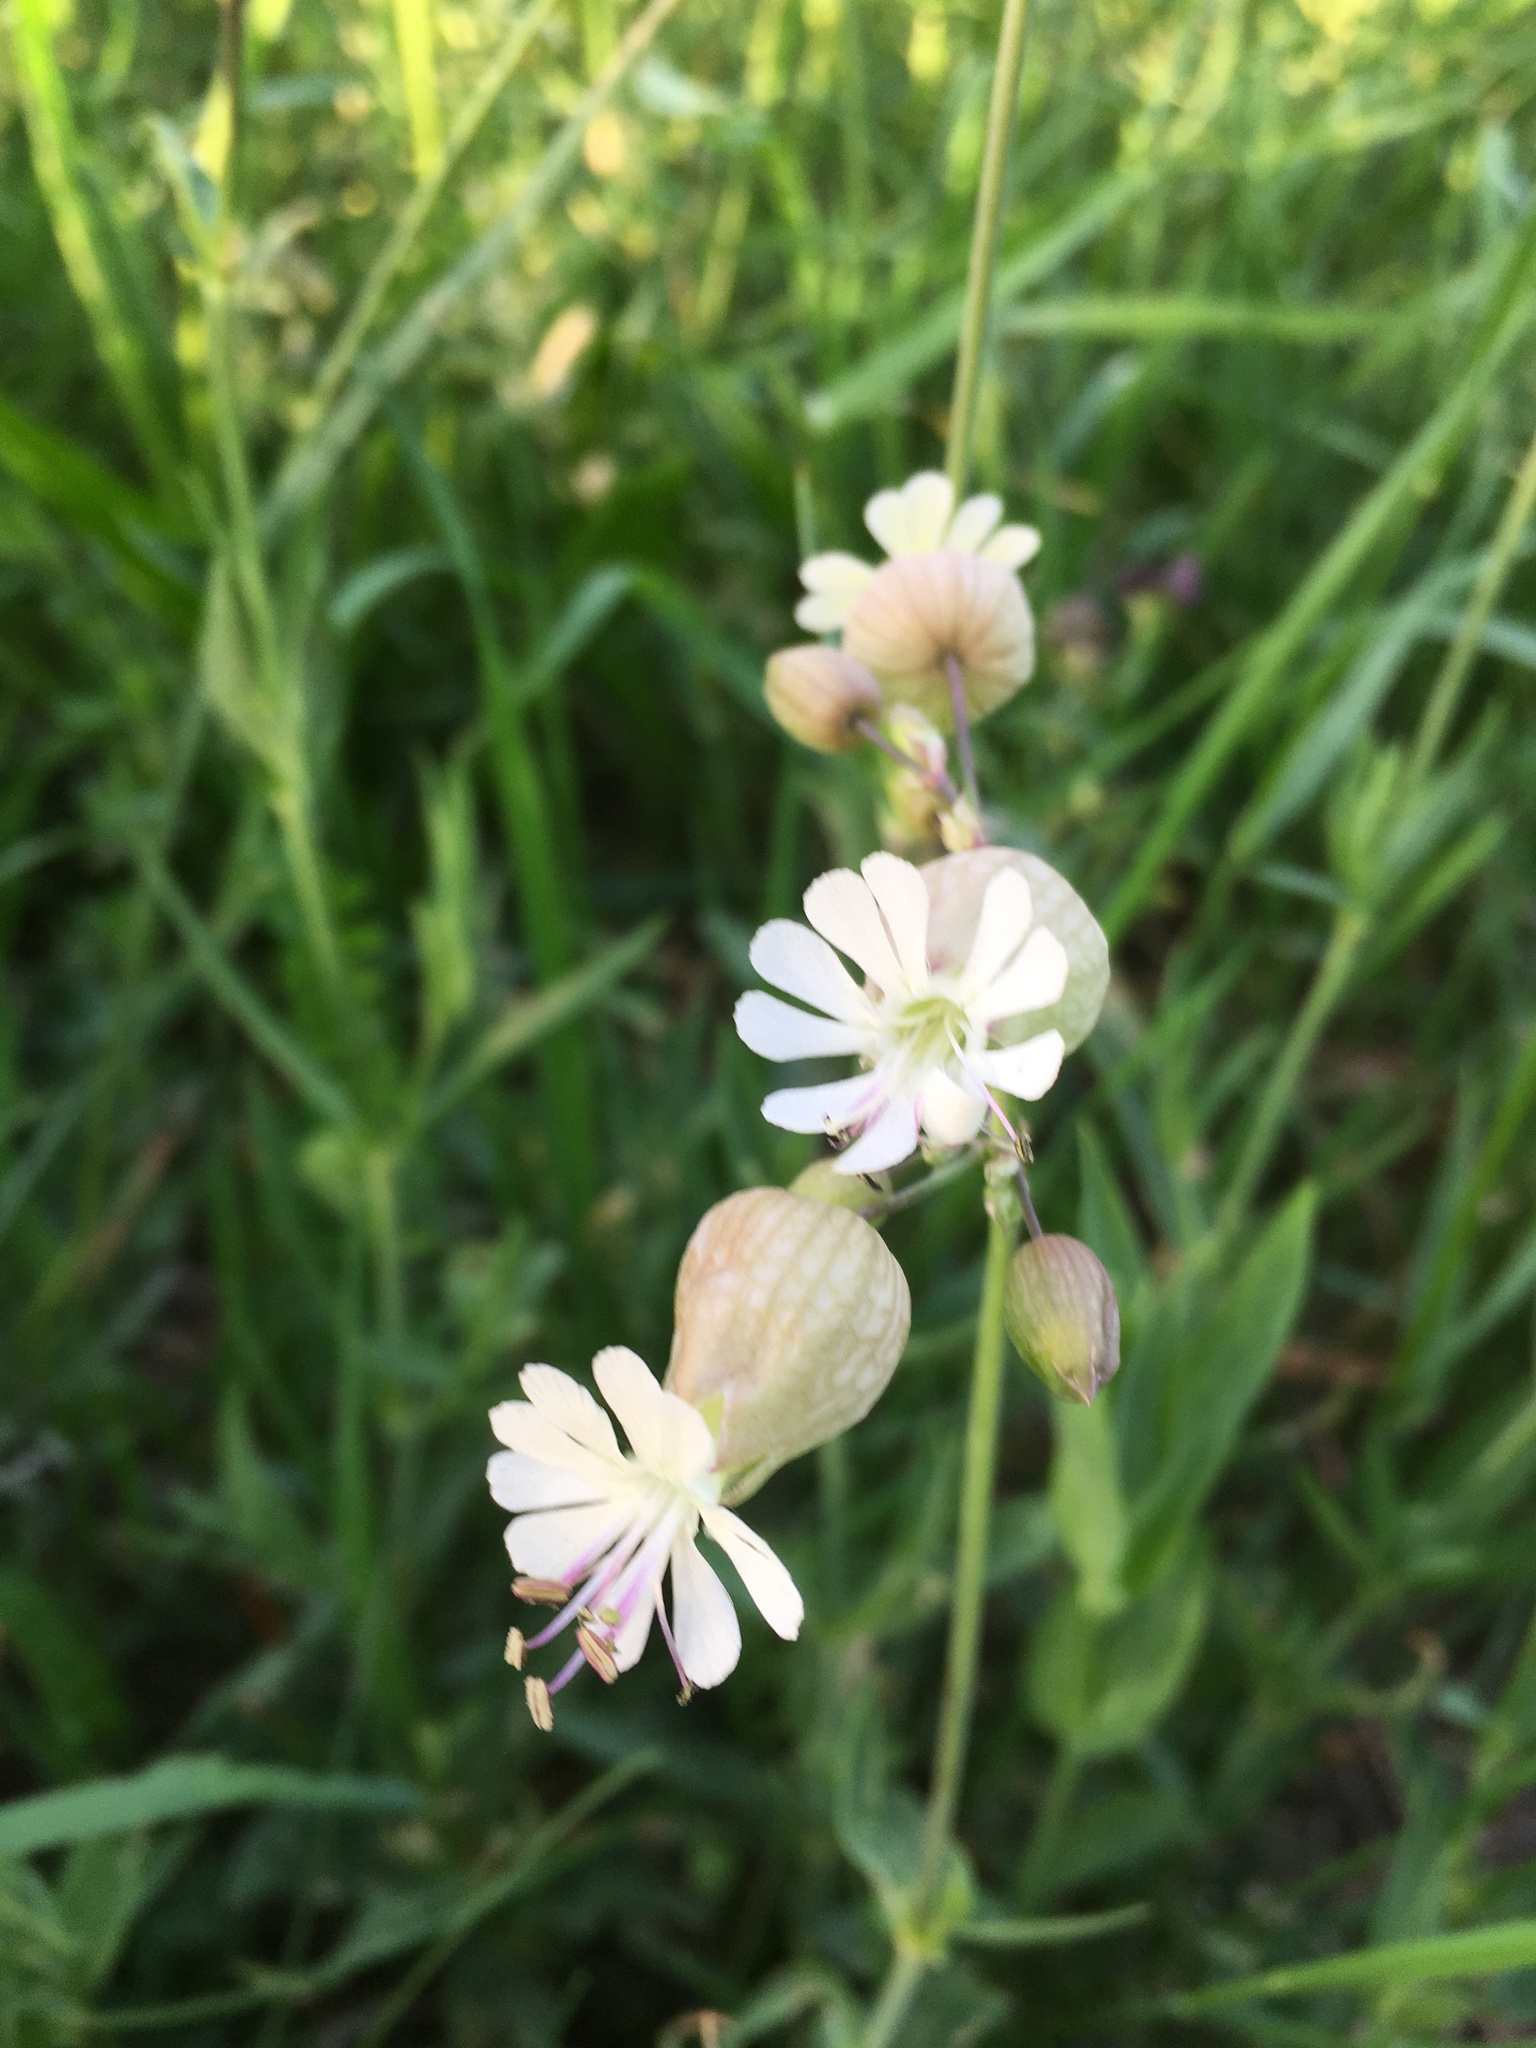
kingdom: Plantae
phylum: Tracheophyta
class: Magnoliopsida
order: Caryophyllales
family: Caryophyllaceae
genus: Silene
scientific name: Silene vulgaris
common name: Bladder campion
